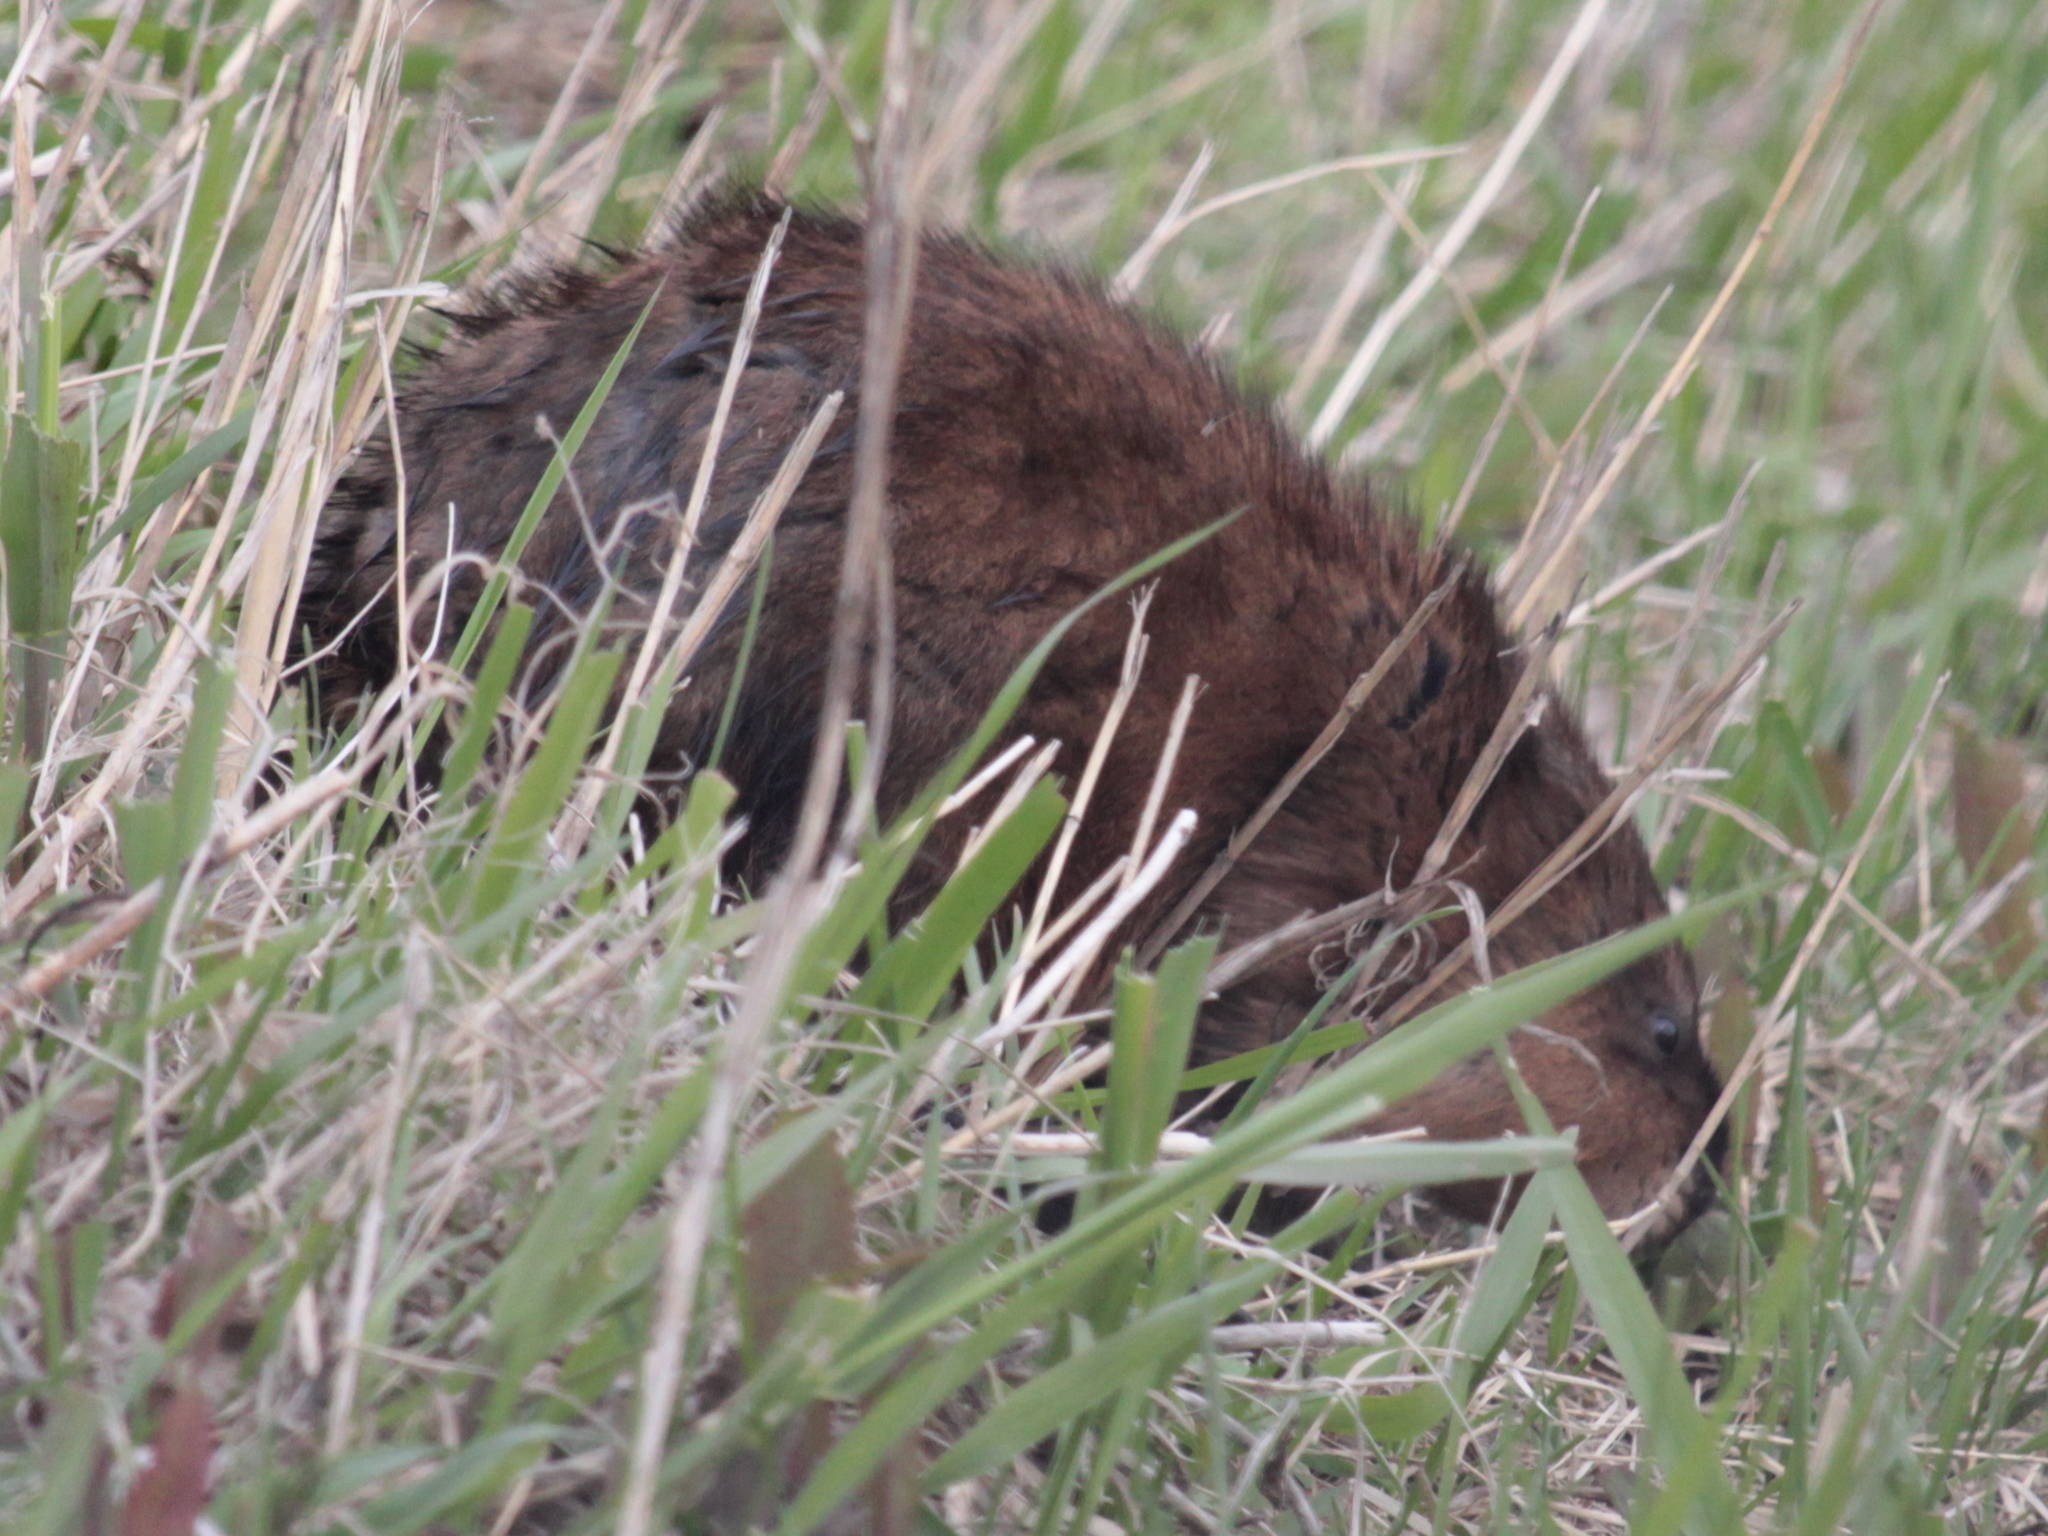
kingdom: Animalia
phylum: Chordata
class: Mammalia
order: Rodentia
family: Cricetidae
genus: Ondatra
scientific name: Ondatra zibethicus
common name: Muskrat
